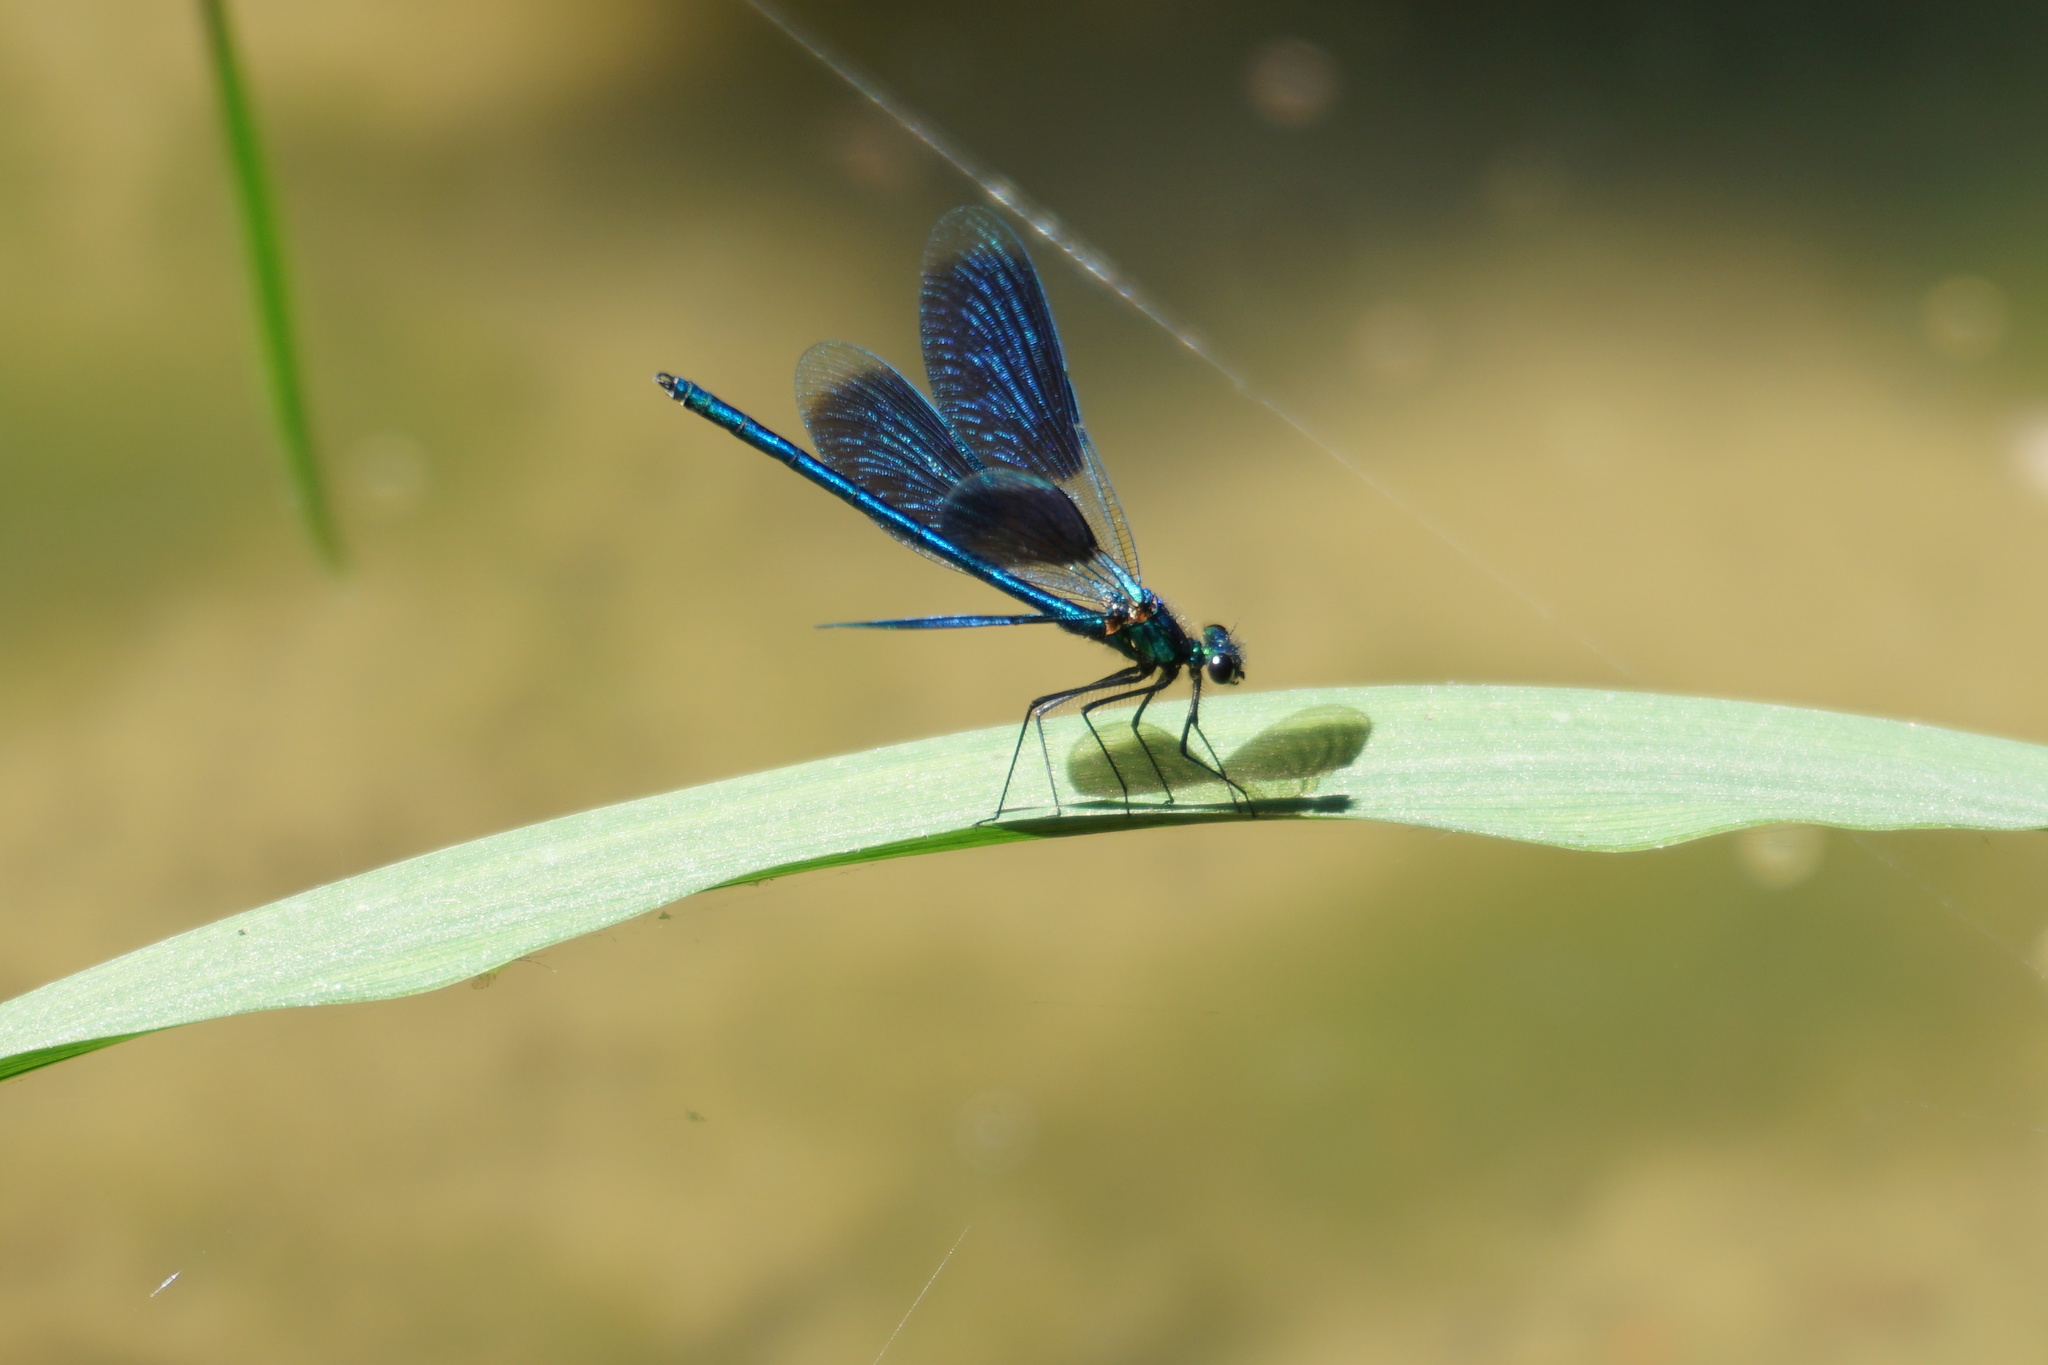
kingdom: Animalia
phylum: Arthropoda
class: Insecta
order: Odonata
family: Calopterygidae
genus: Calopteryx
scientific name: Calopteryx splendens
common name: Banded demoiselle
